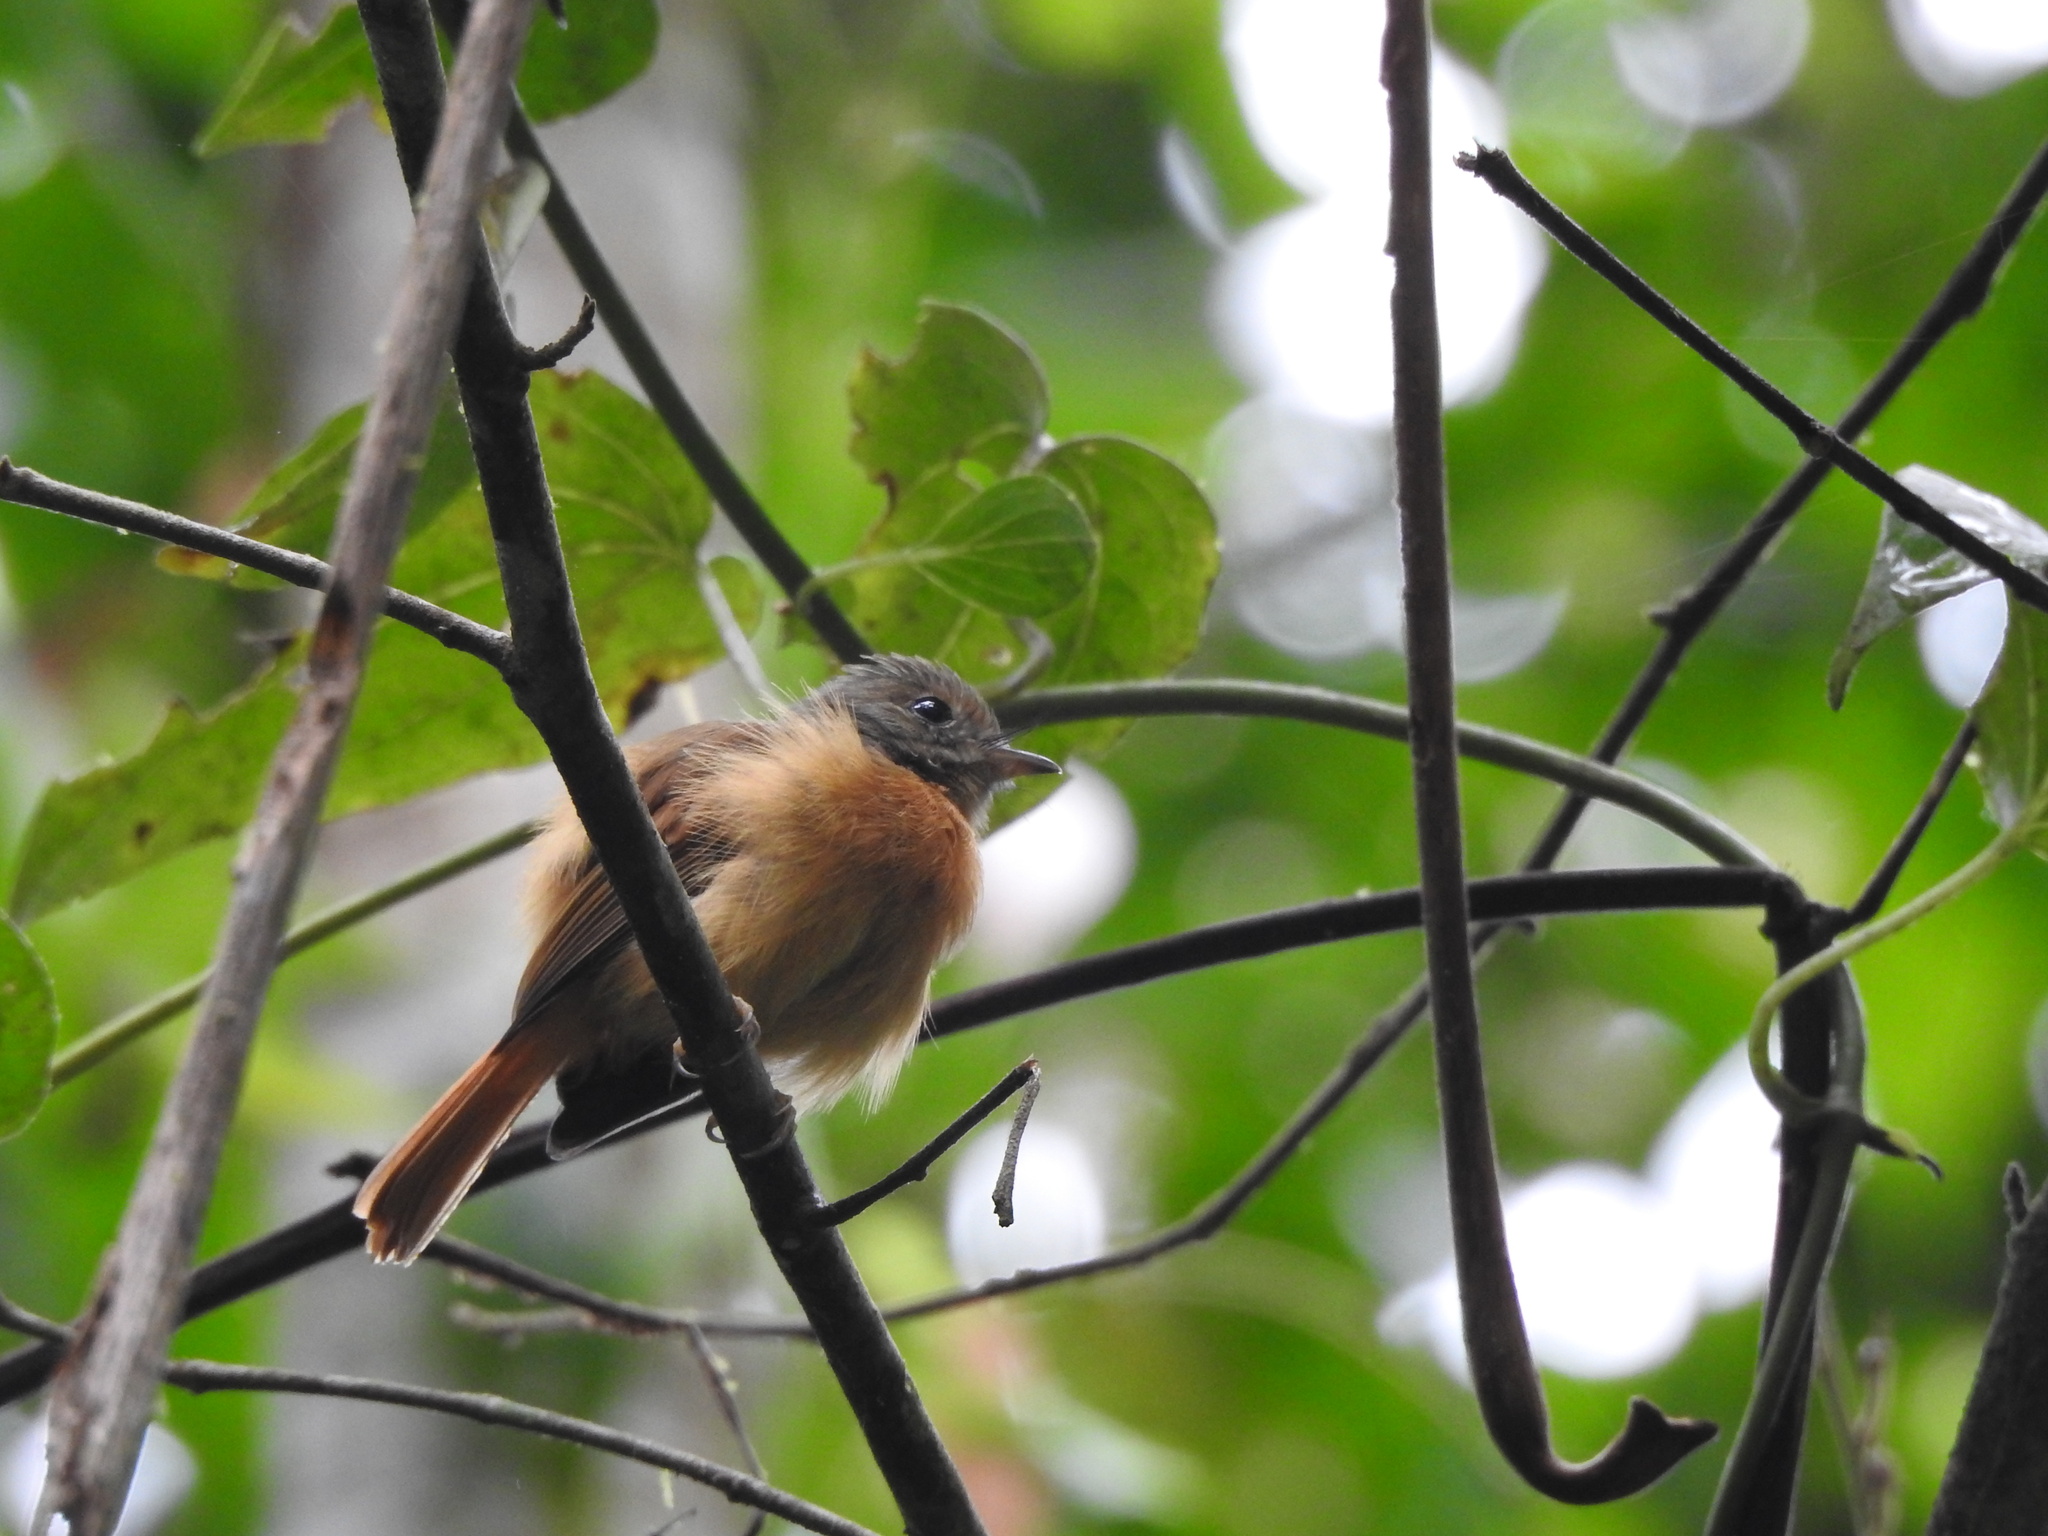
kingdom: Animalia
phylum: Chordata
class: Aves
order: Passeriformes
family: Tyrannidae
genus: Terenotriccus
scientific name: Terenotriccus erythrurus
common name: Ruddy-tailed flycatcher
